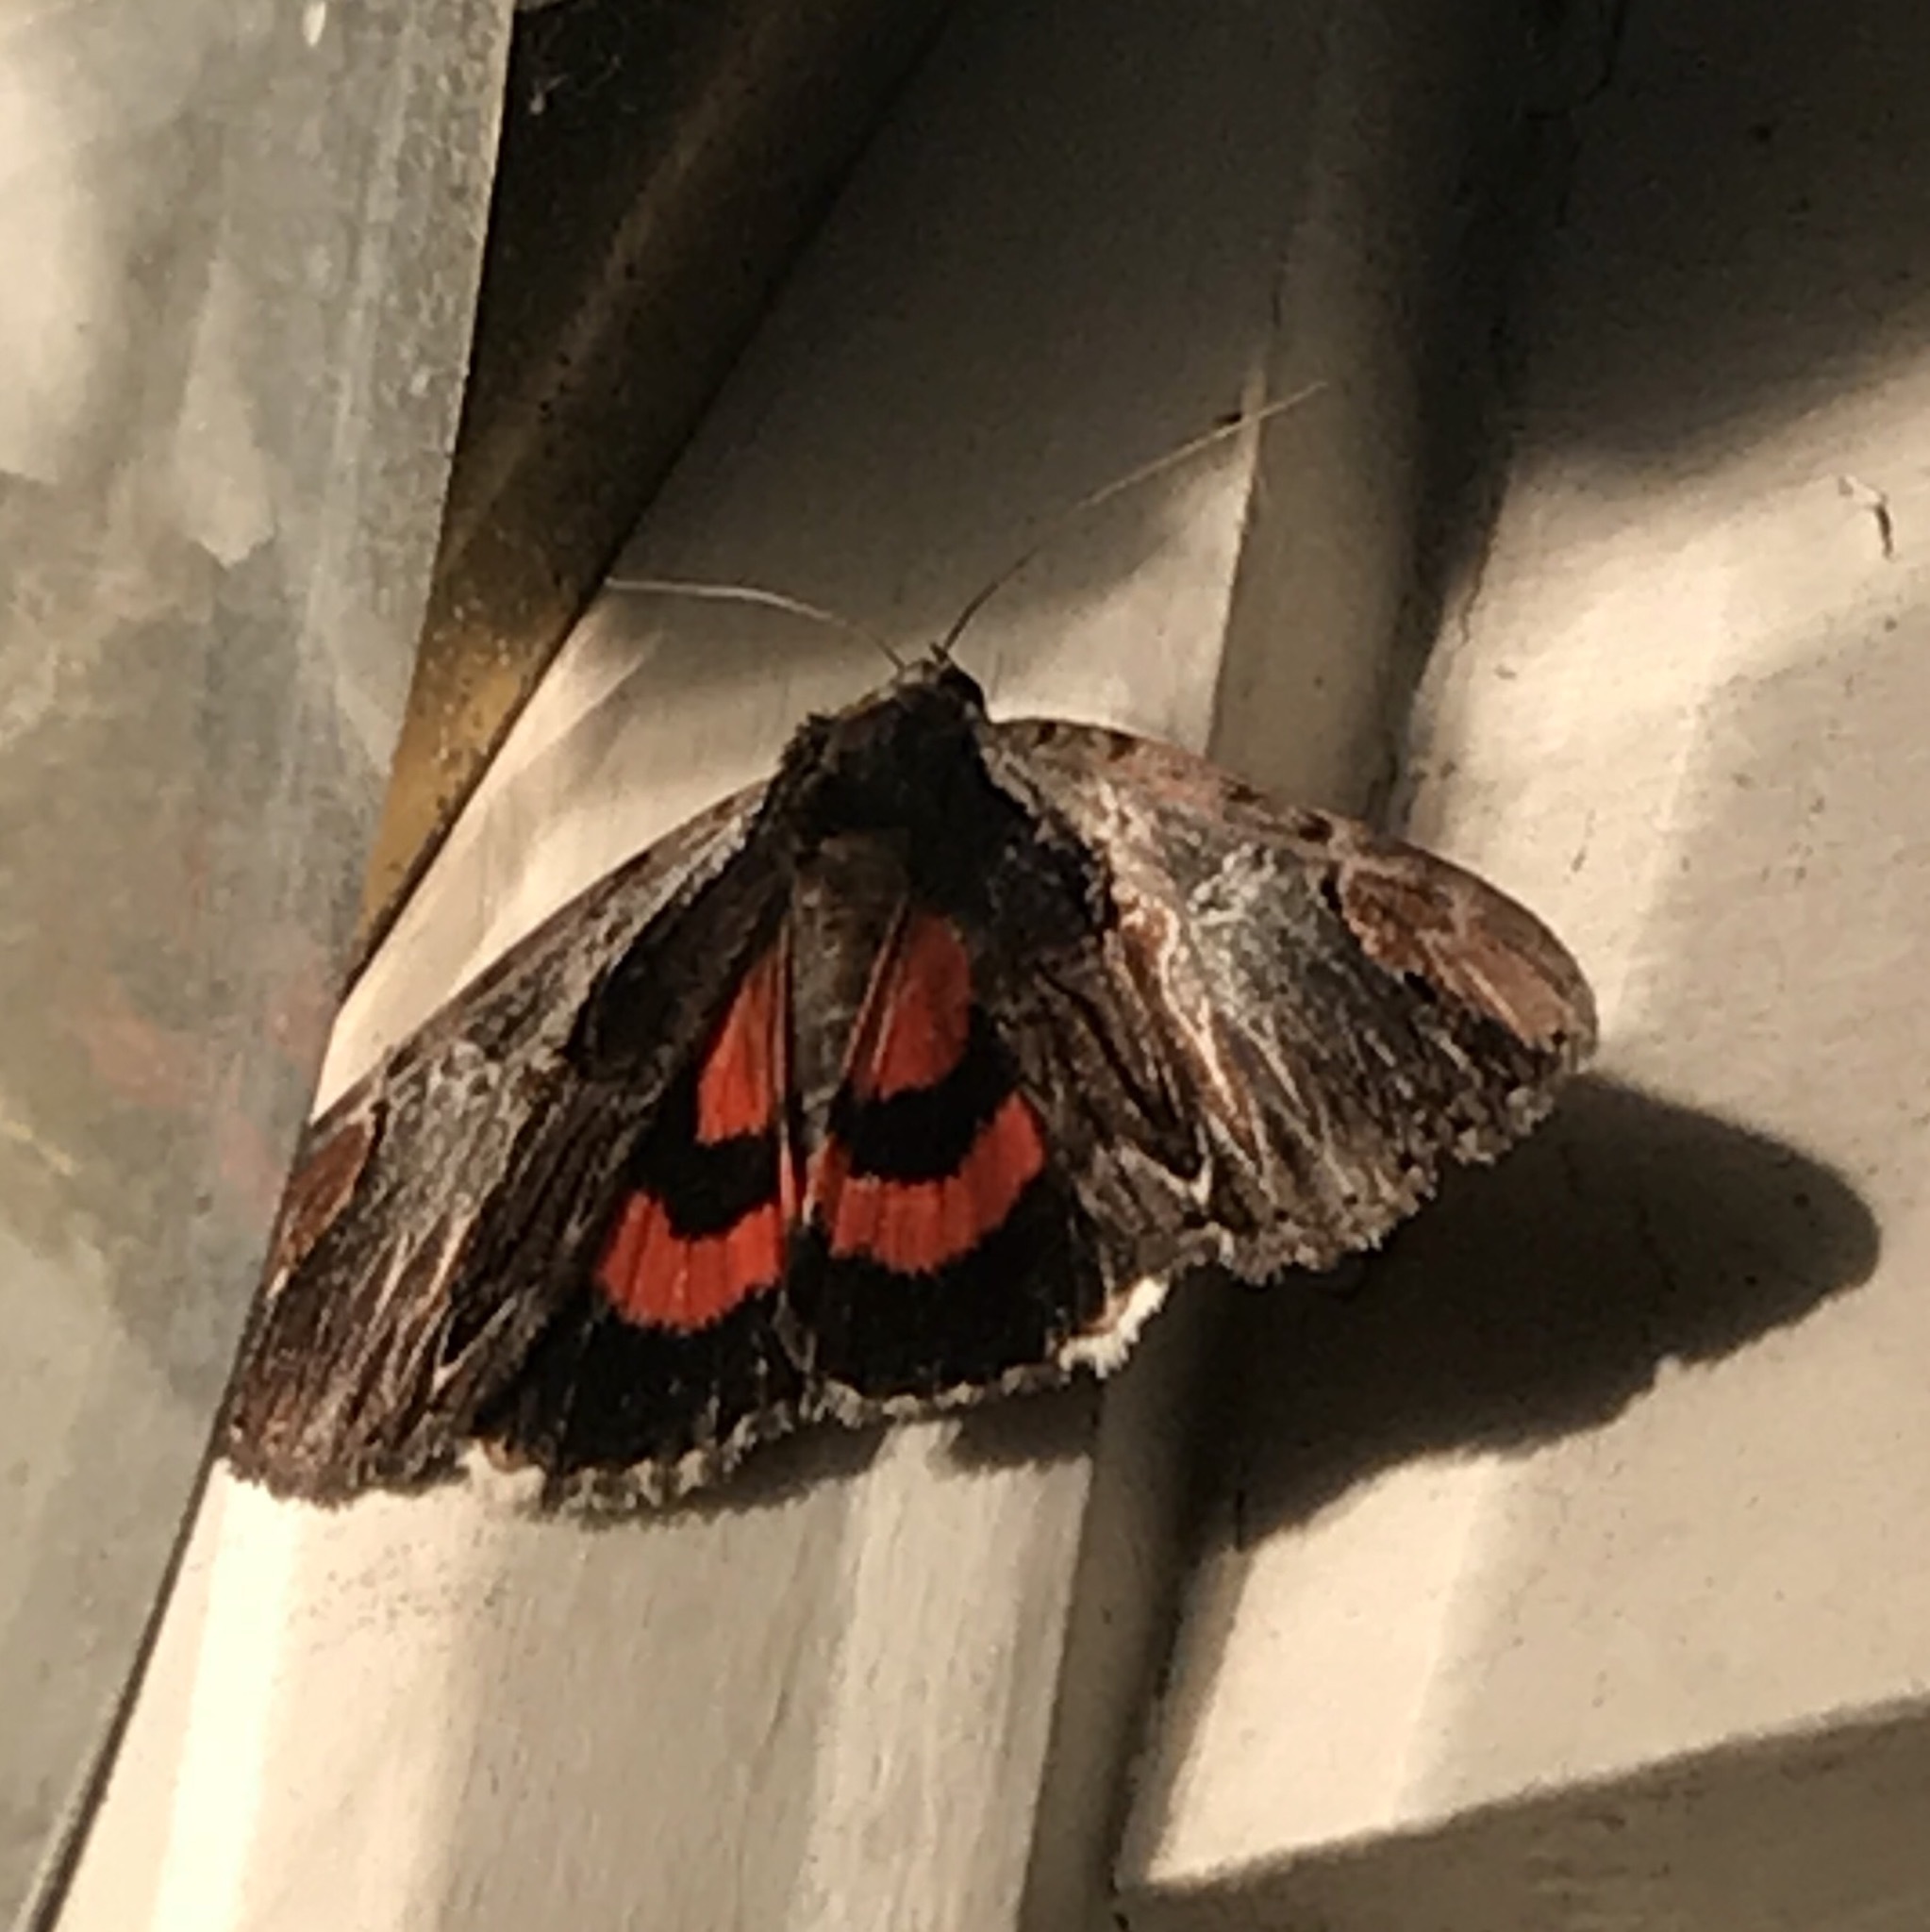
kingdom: Animalia
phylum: Arthropoda
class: Insecta
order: Lepidoptera
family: Erebidae
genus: Catocala
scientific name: Catocala ultronia
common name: Ultronia underwing
